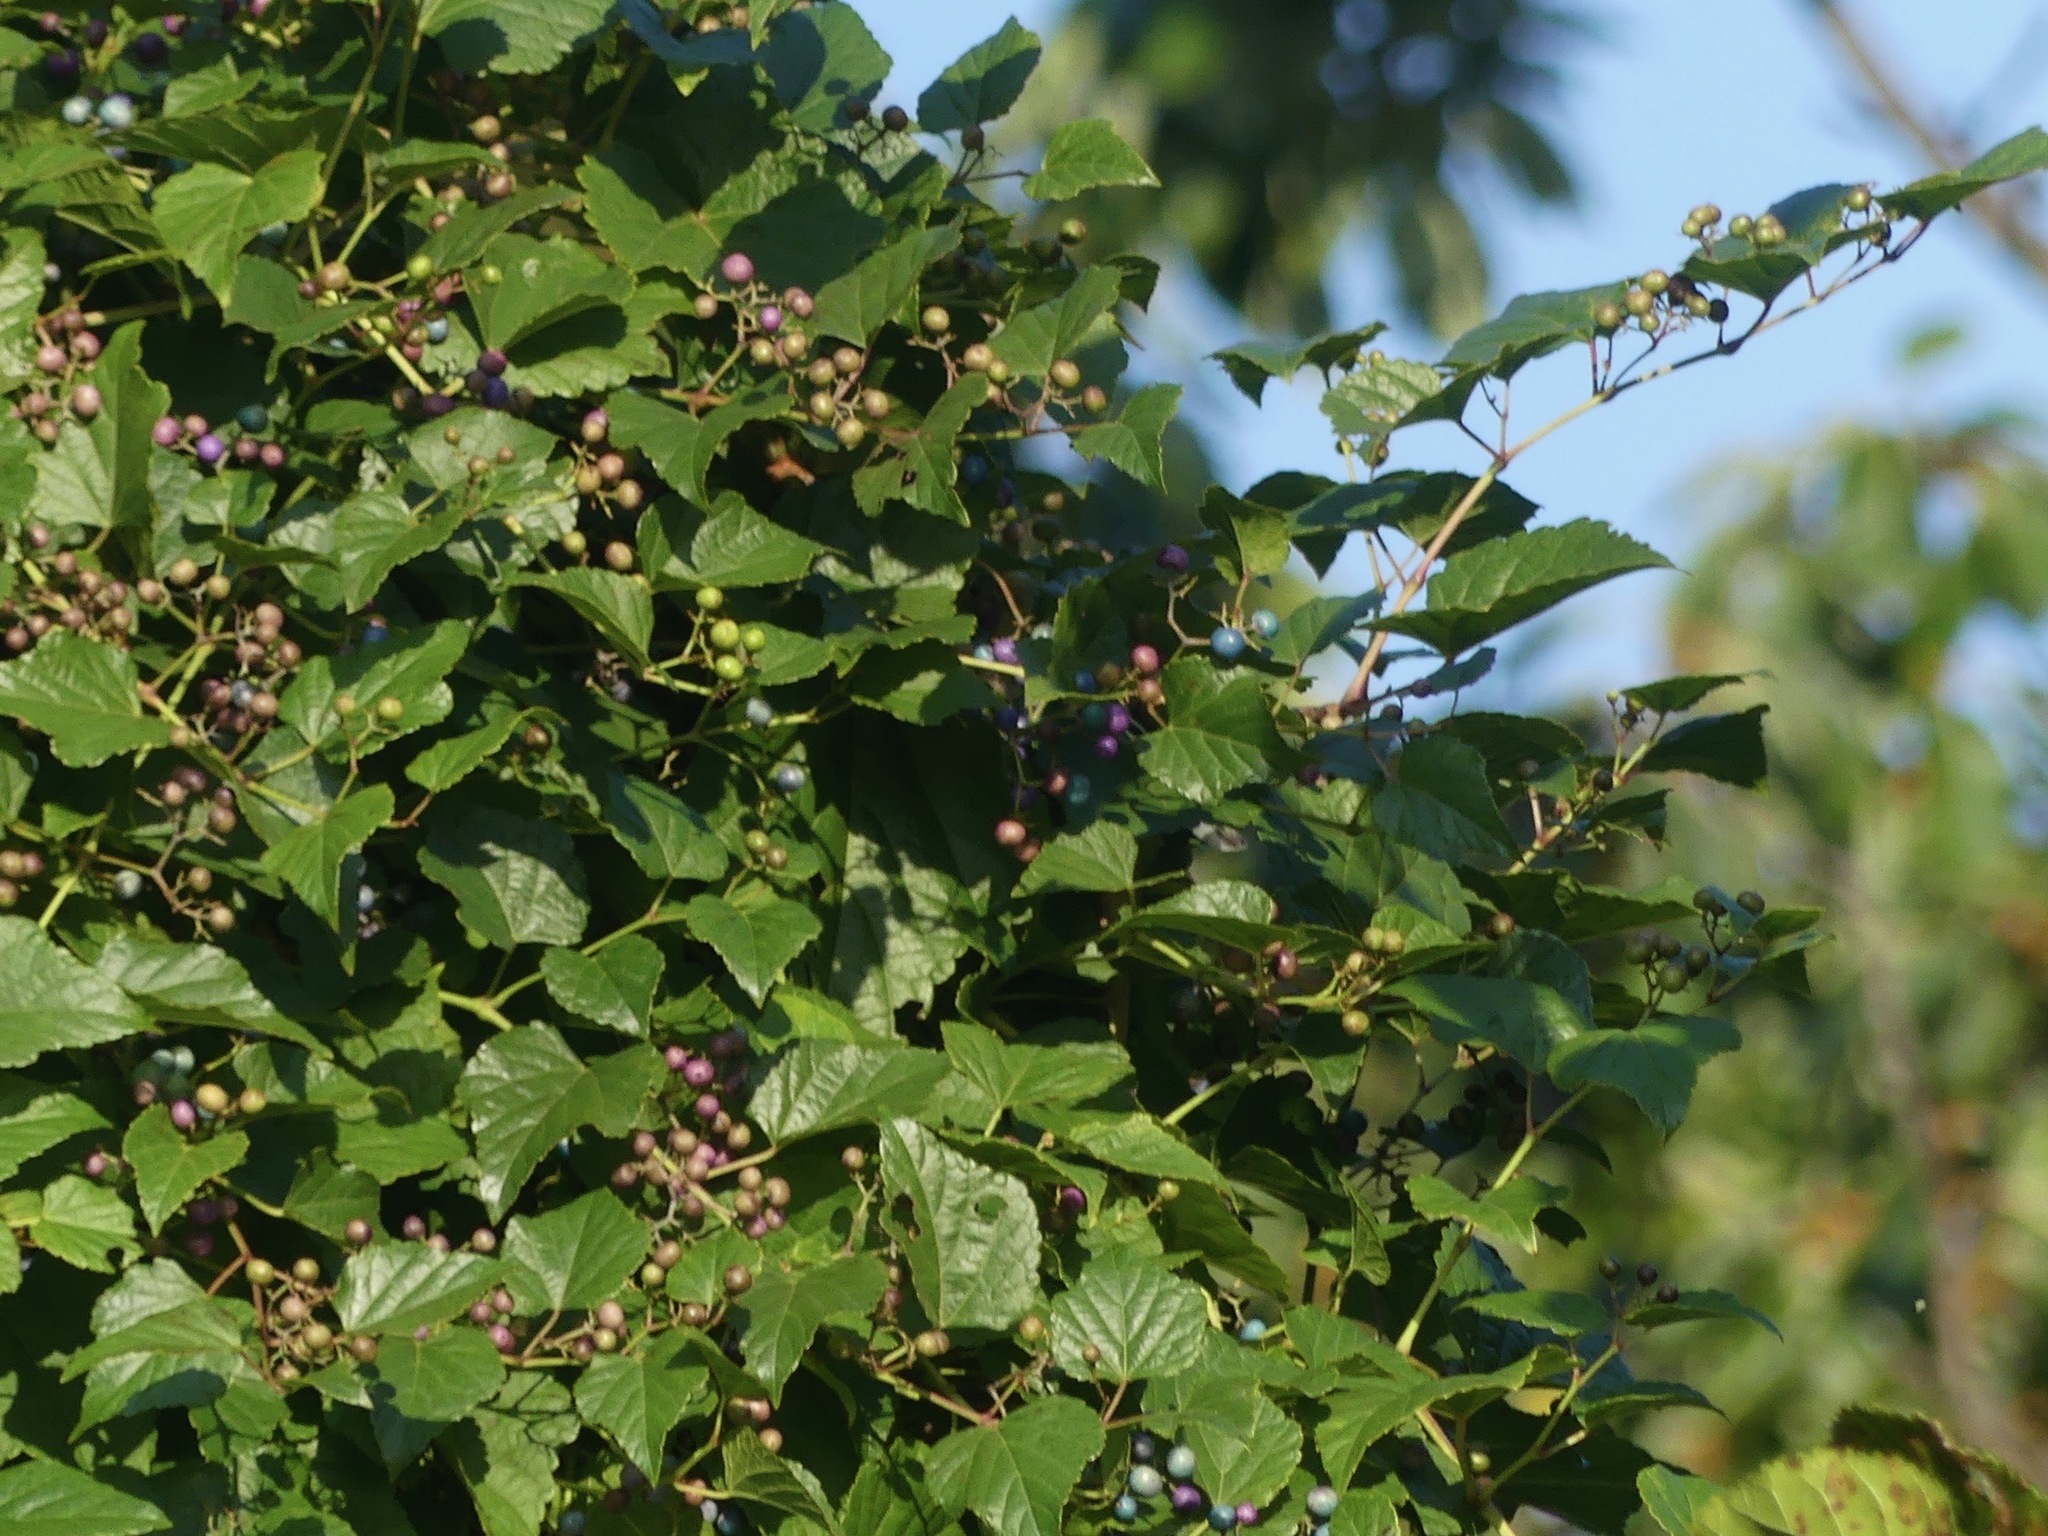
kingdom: Plantae
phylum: Tracheophyta
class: Magnoliopsida
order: Vitales
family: Vitaceae
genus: Ampelopsis
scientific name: Ampelopsis glandulosa
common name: Amur peppervine
